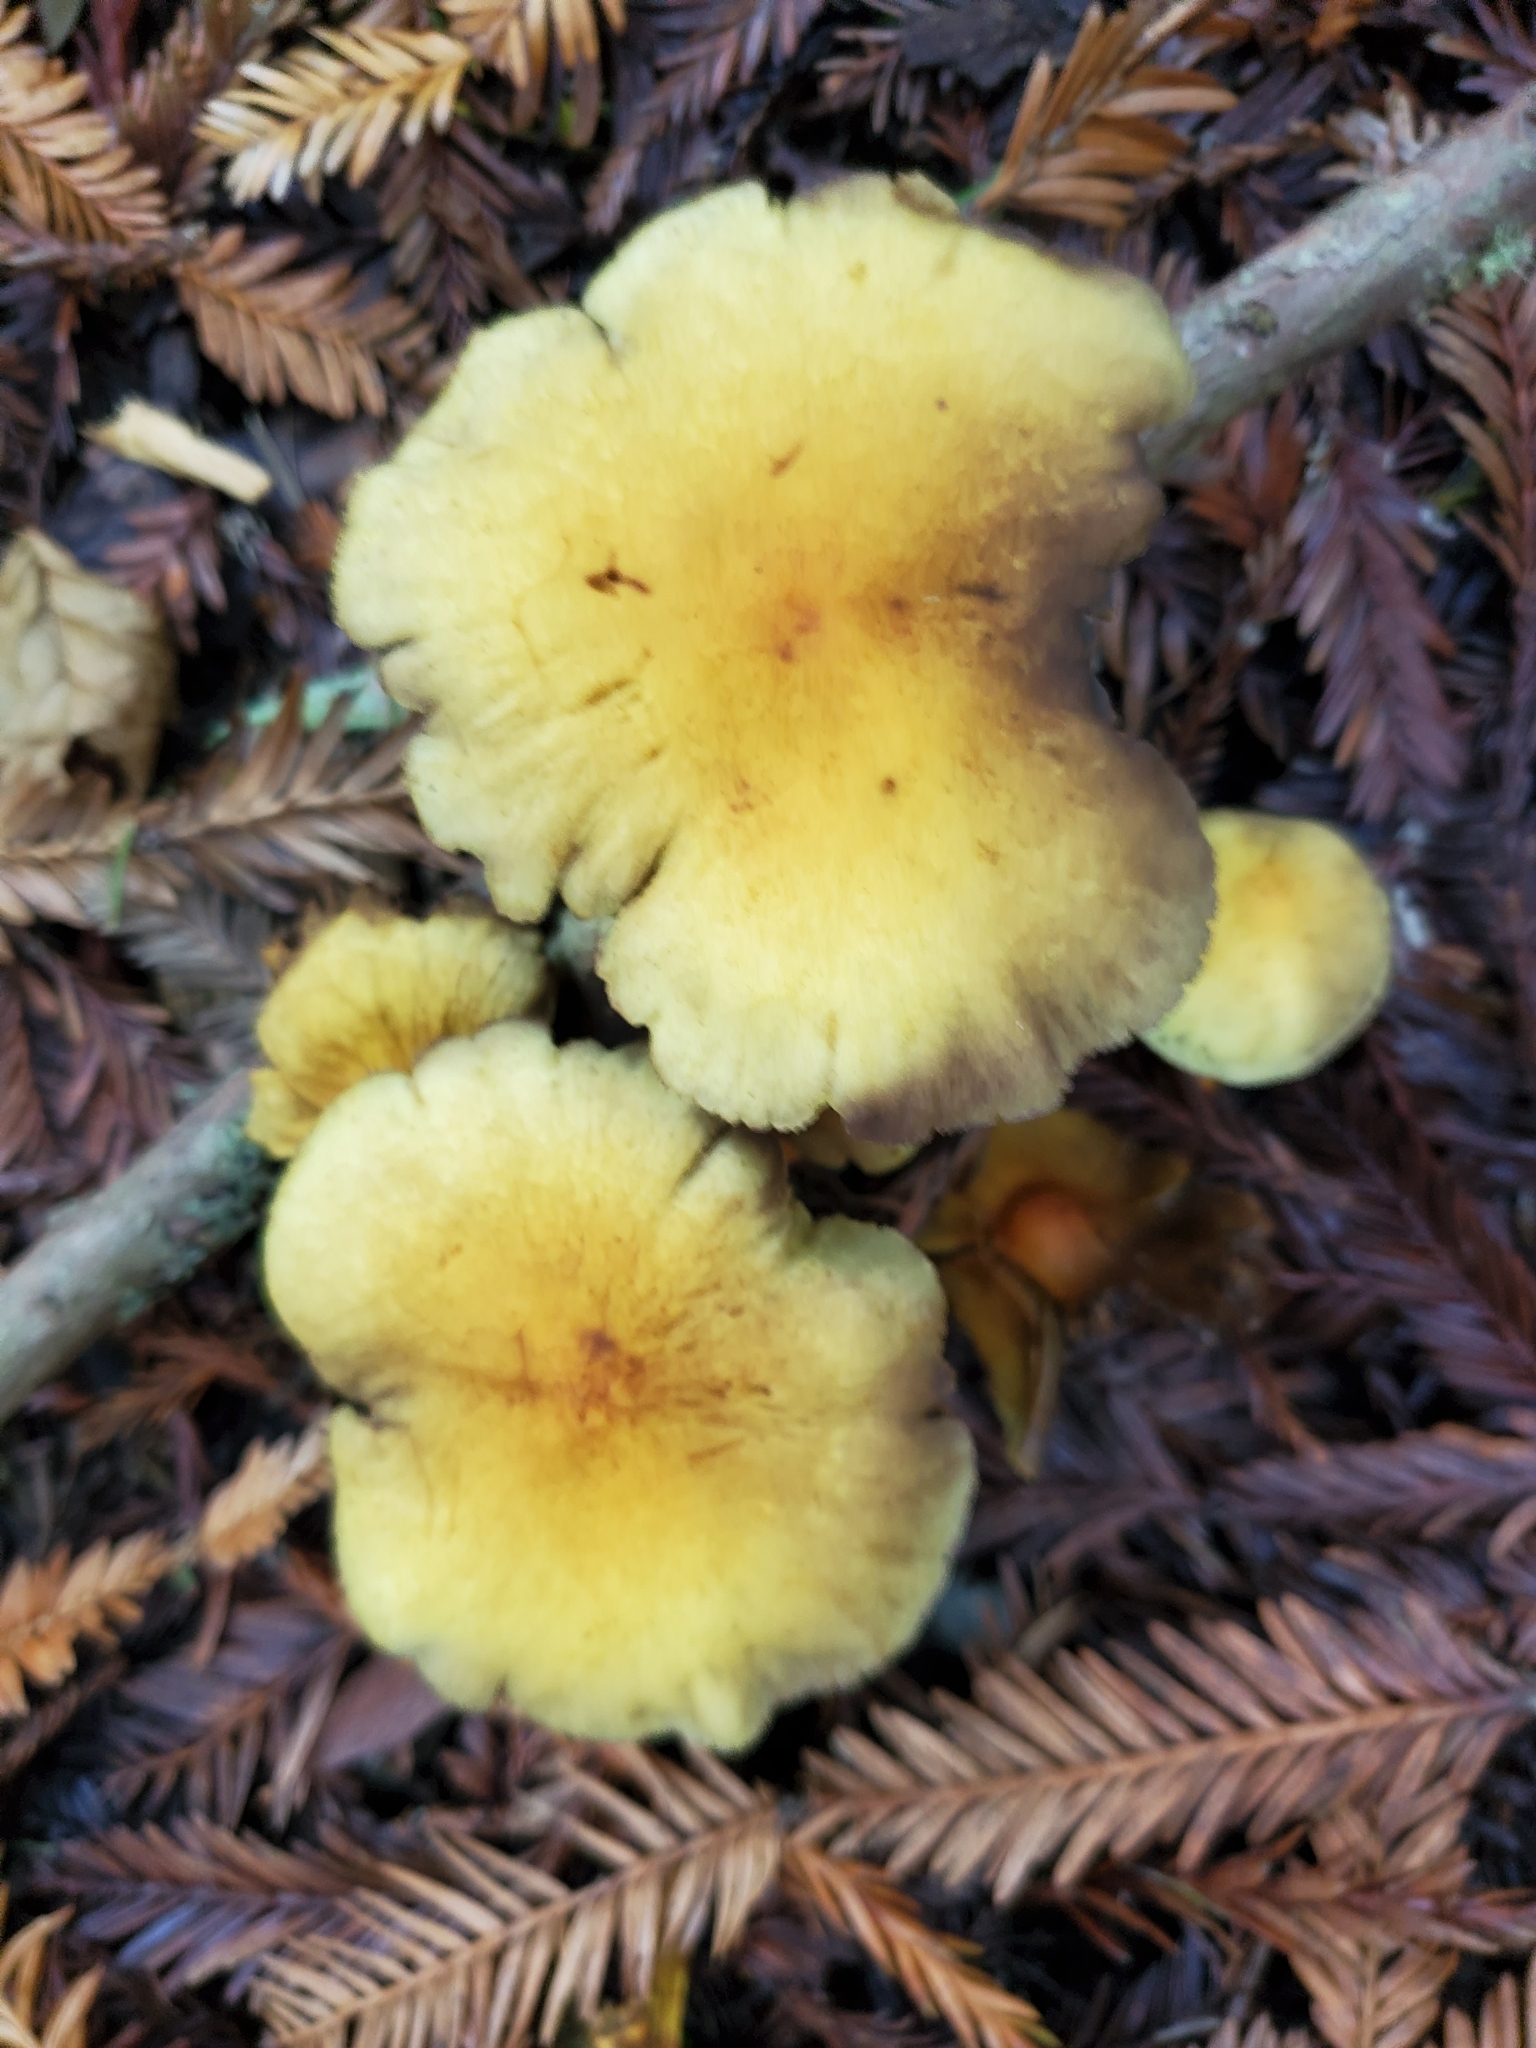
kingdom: Fungi
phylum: Basidiomycota
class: Agaricomycetes
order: Agaricales
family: Strophariaceae
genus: Hypholoma
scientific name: Hypholoma fasciculare
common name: Sulphur tuft
